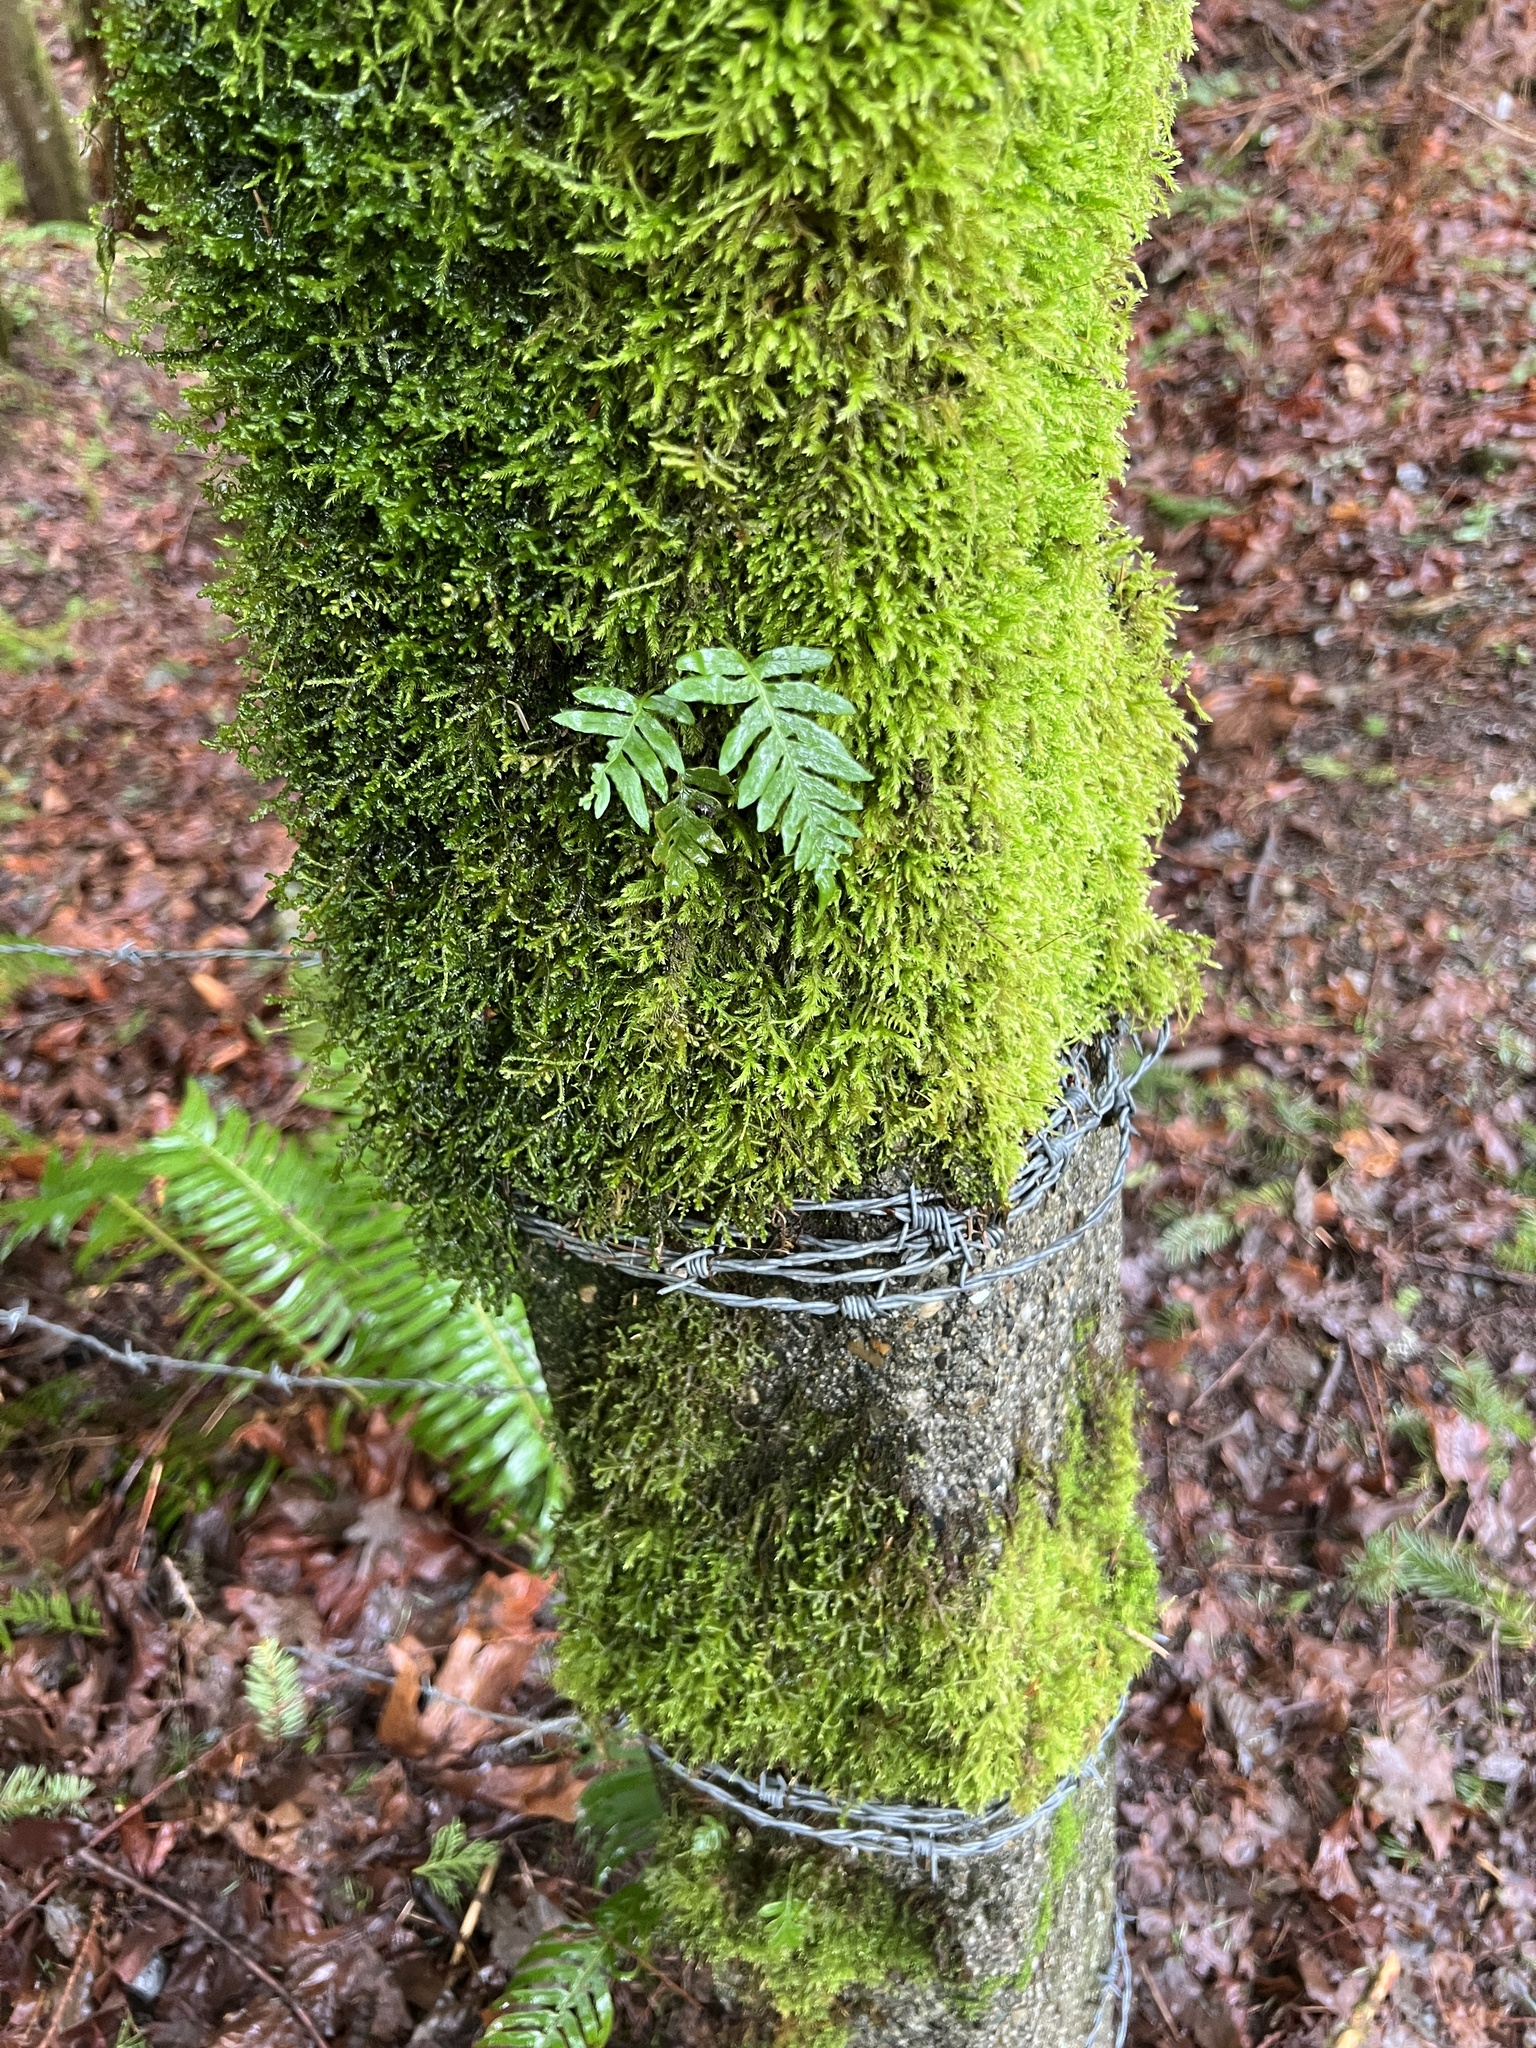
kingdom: Plantae
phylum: Tracheophyta
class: Polypodiopsida
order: Polypodiales
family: Polypodiaceae
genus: Polypodium
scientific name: Polypodium glycyrrhiza
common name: Licorice fern
